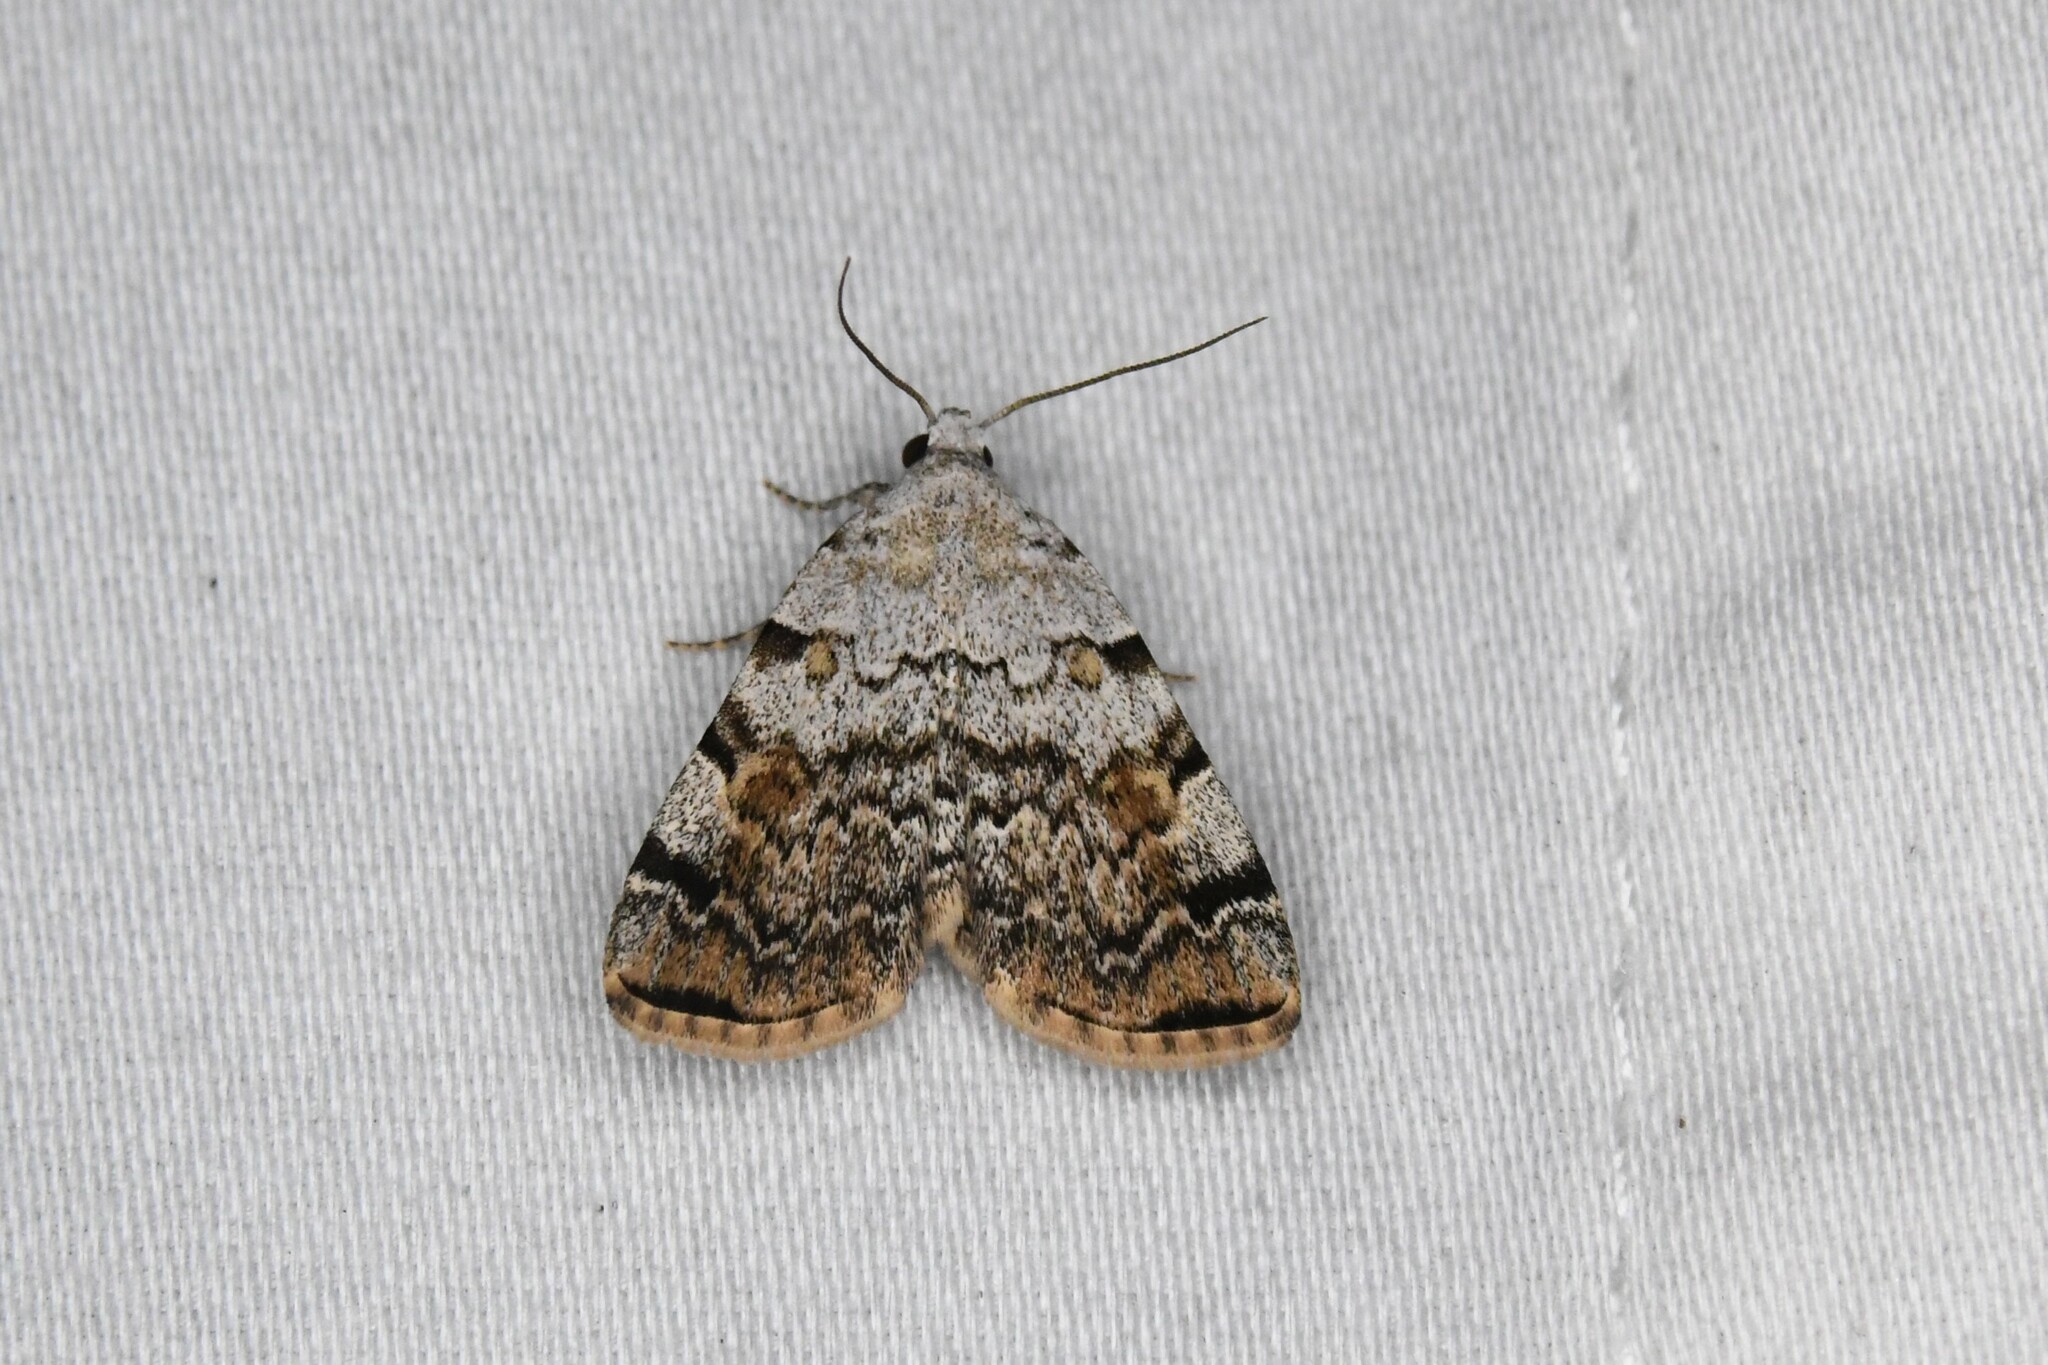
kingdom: Animalia
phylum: Arthropoda
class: Insecta
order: Lepidoptera
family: Erebidae
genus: Idia
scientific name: Idia americalis
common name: American idia moth
